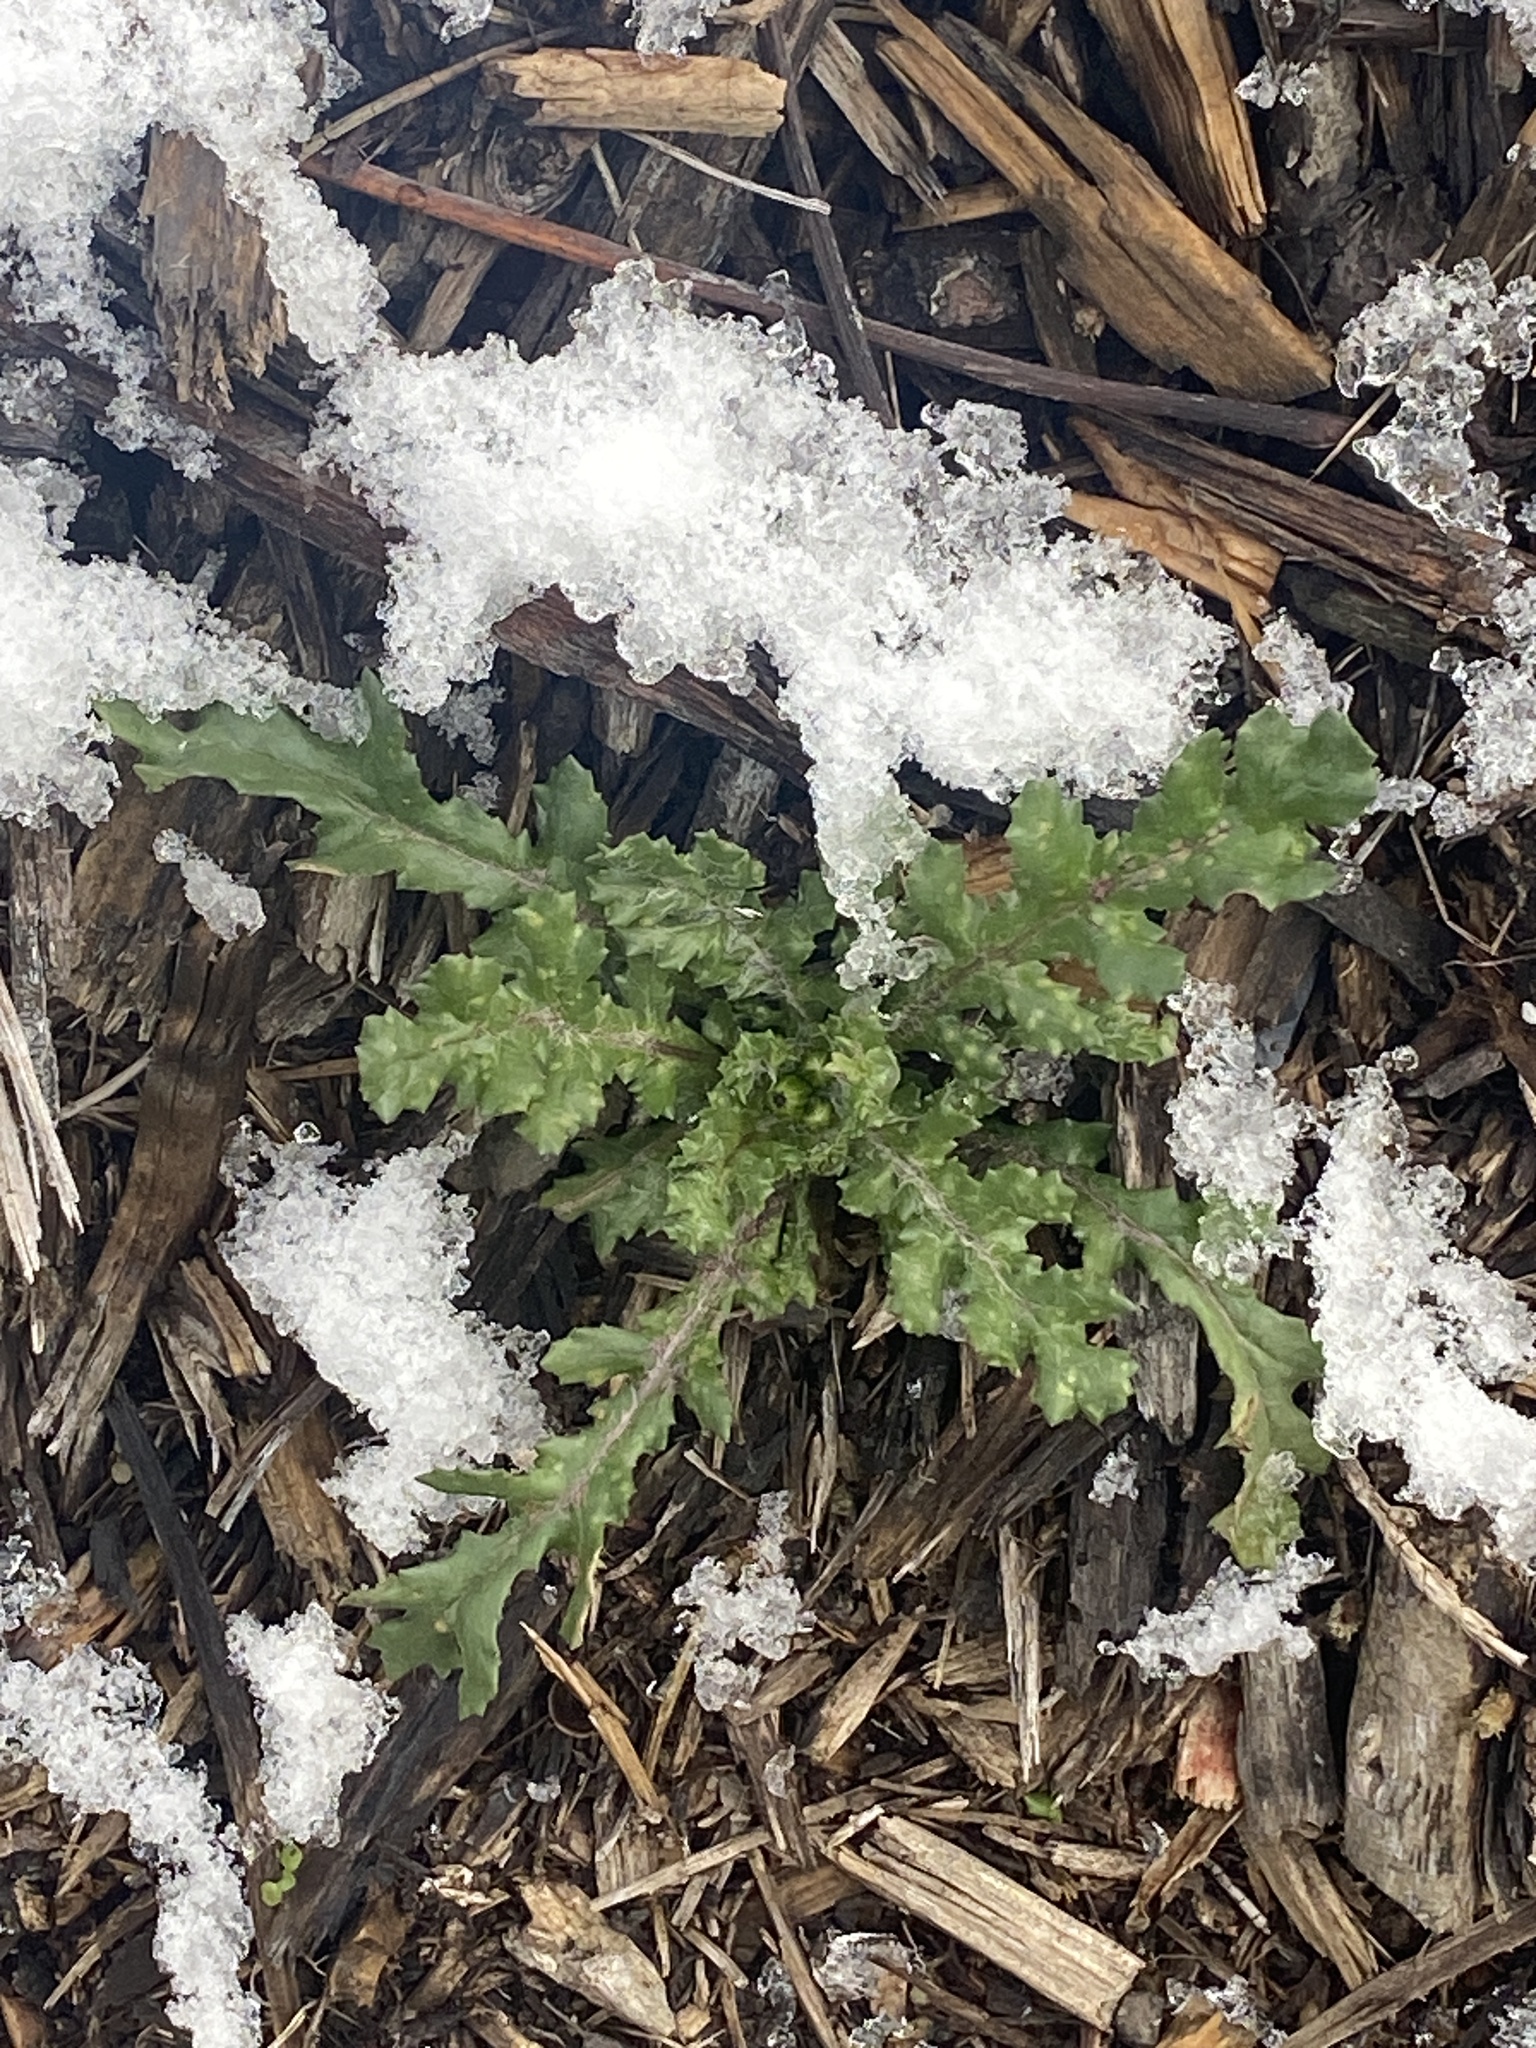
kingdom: Plantae
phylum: Tracheophyta
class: Magnoliopsida
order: Asterales
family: Asteraceae
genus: Senecio
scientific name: Senecio vulgaris
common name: Old-man-in-the-spring
